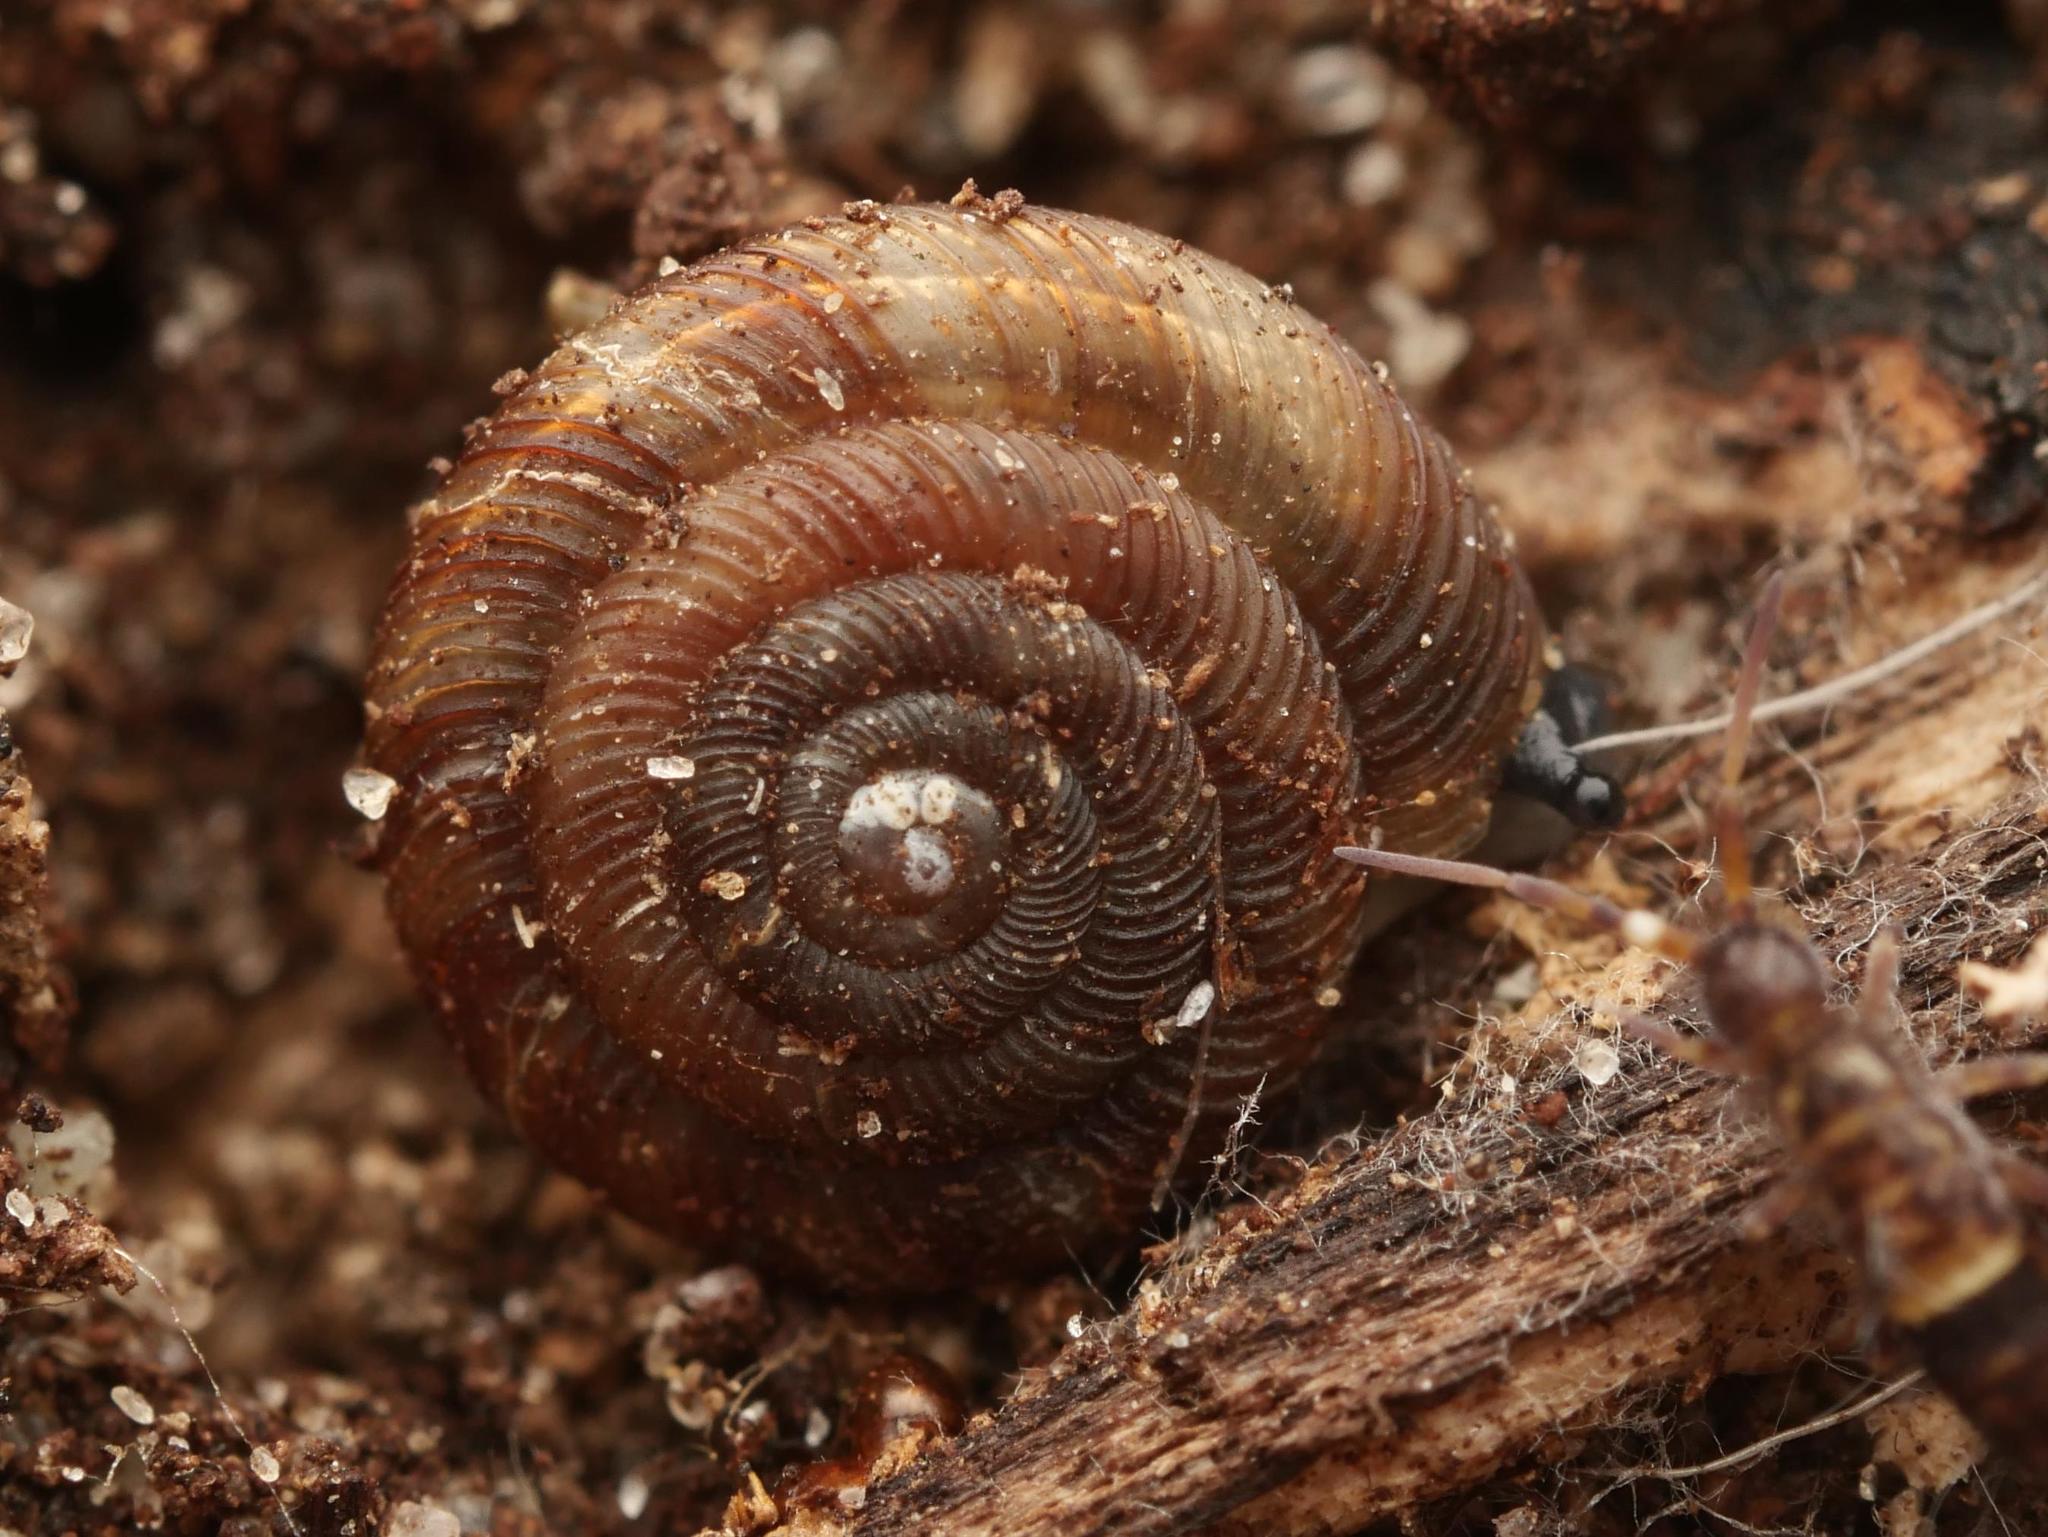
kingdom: Animalia
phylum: Mollusca
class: Gastropoda
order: Stylommatophora
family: Discidae
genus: Discus
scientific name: Discus rotundatus
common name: Rounded snail
